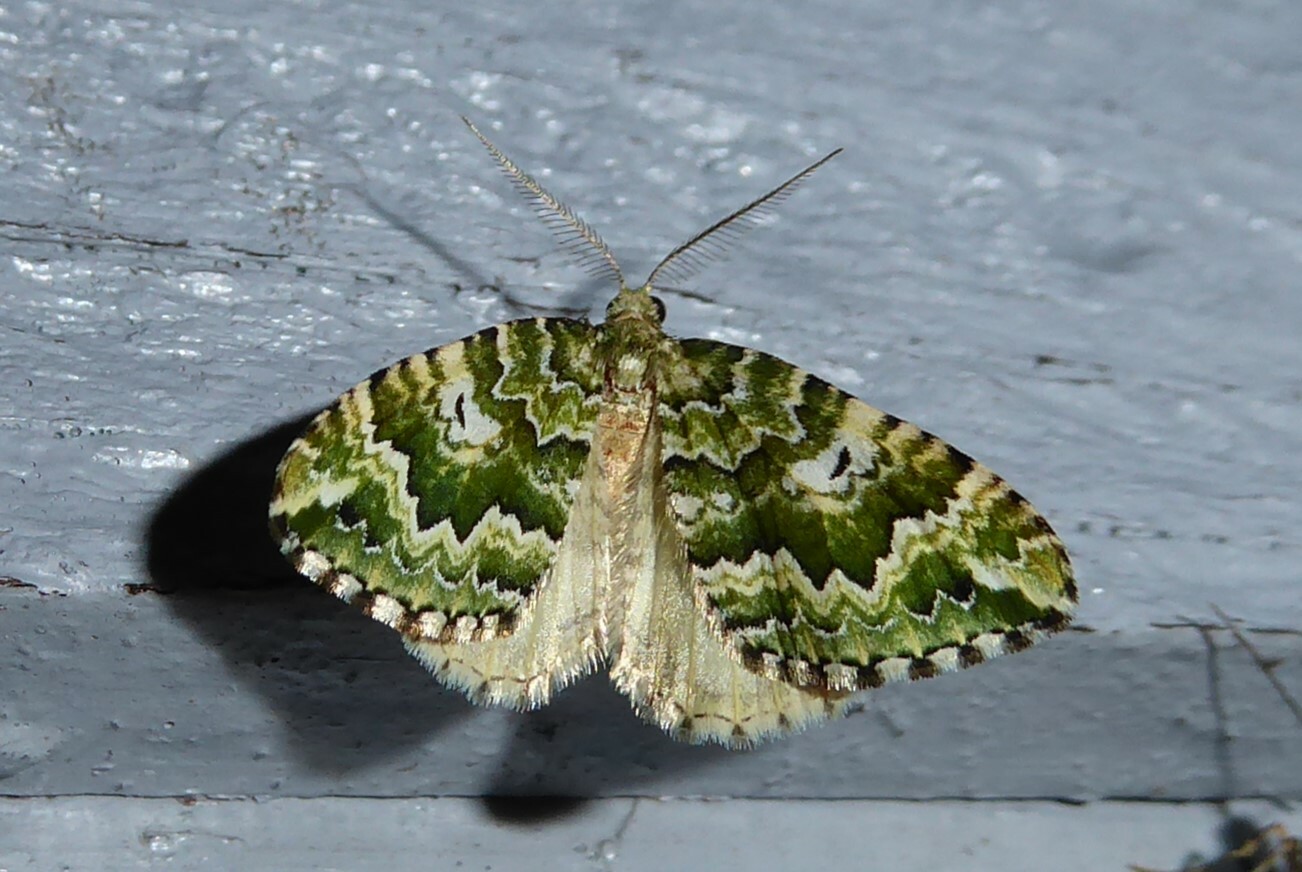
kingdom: Animalia
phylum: Arthropoda
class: Insecta
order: Lepidoptera
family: Geometridae
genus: Asaphodes
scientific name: Asaphodes beata
